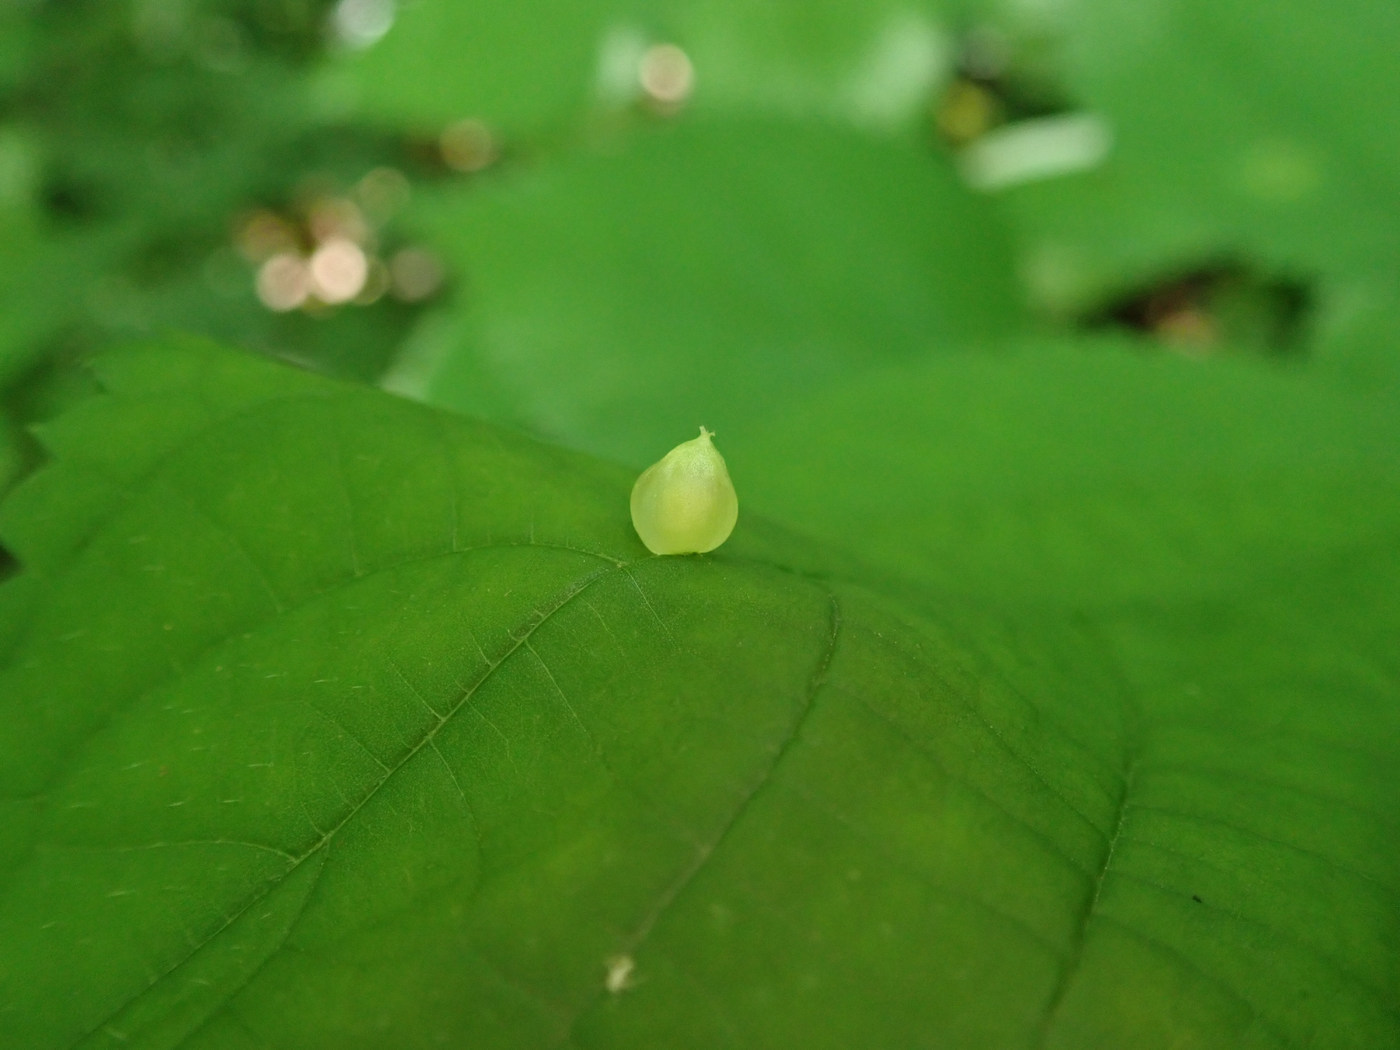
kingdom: Animalia
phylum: Arthropoda
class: Insecta
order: Diptera
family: Cecidomyiidae
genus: Dasineura
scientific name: Dasineura investita
